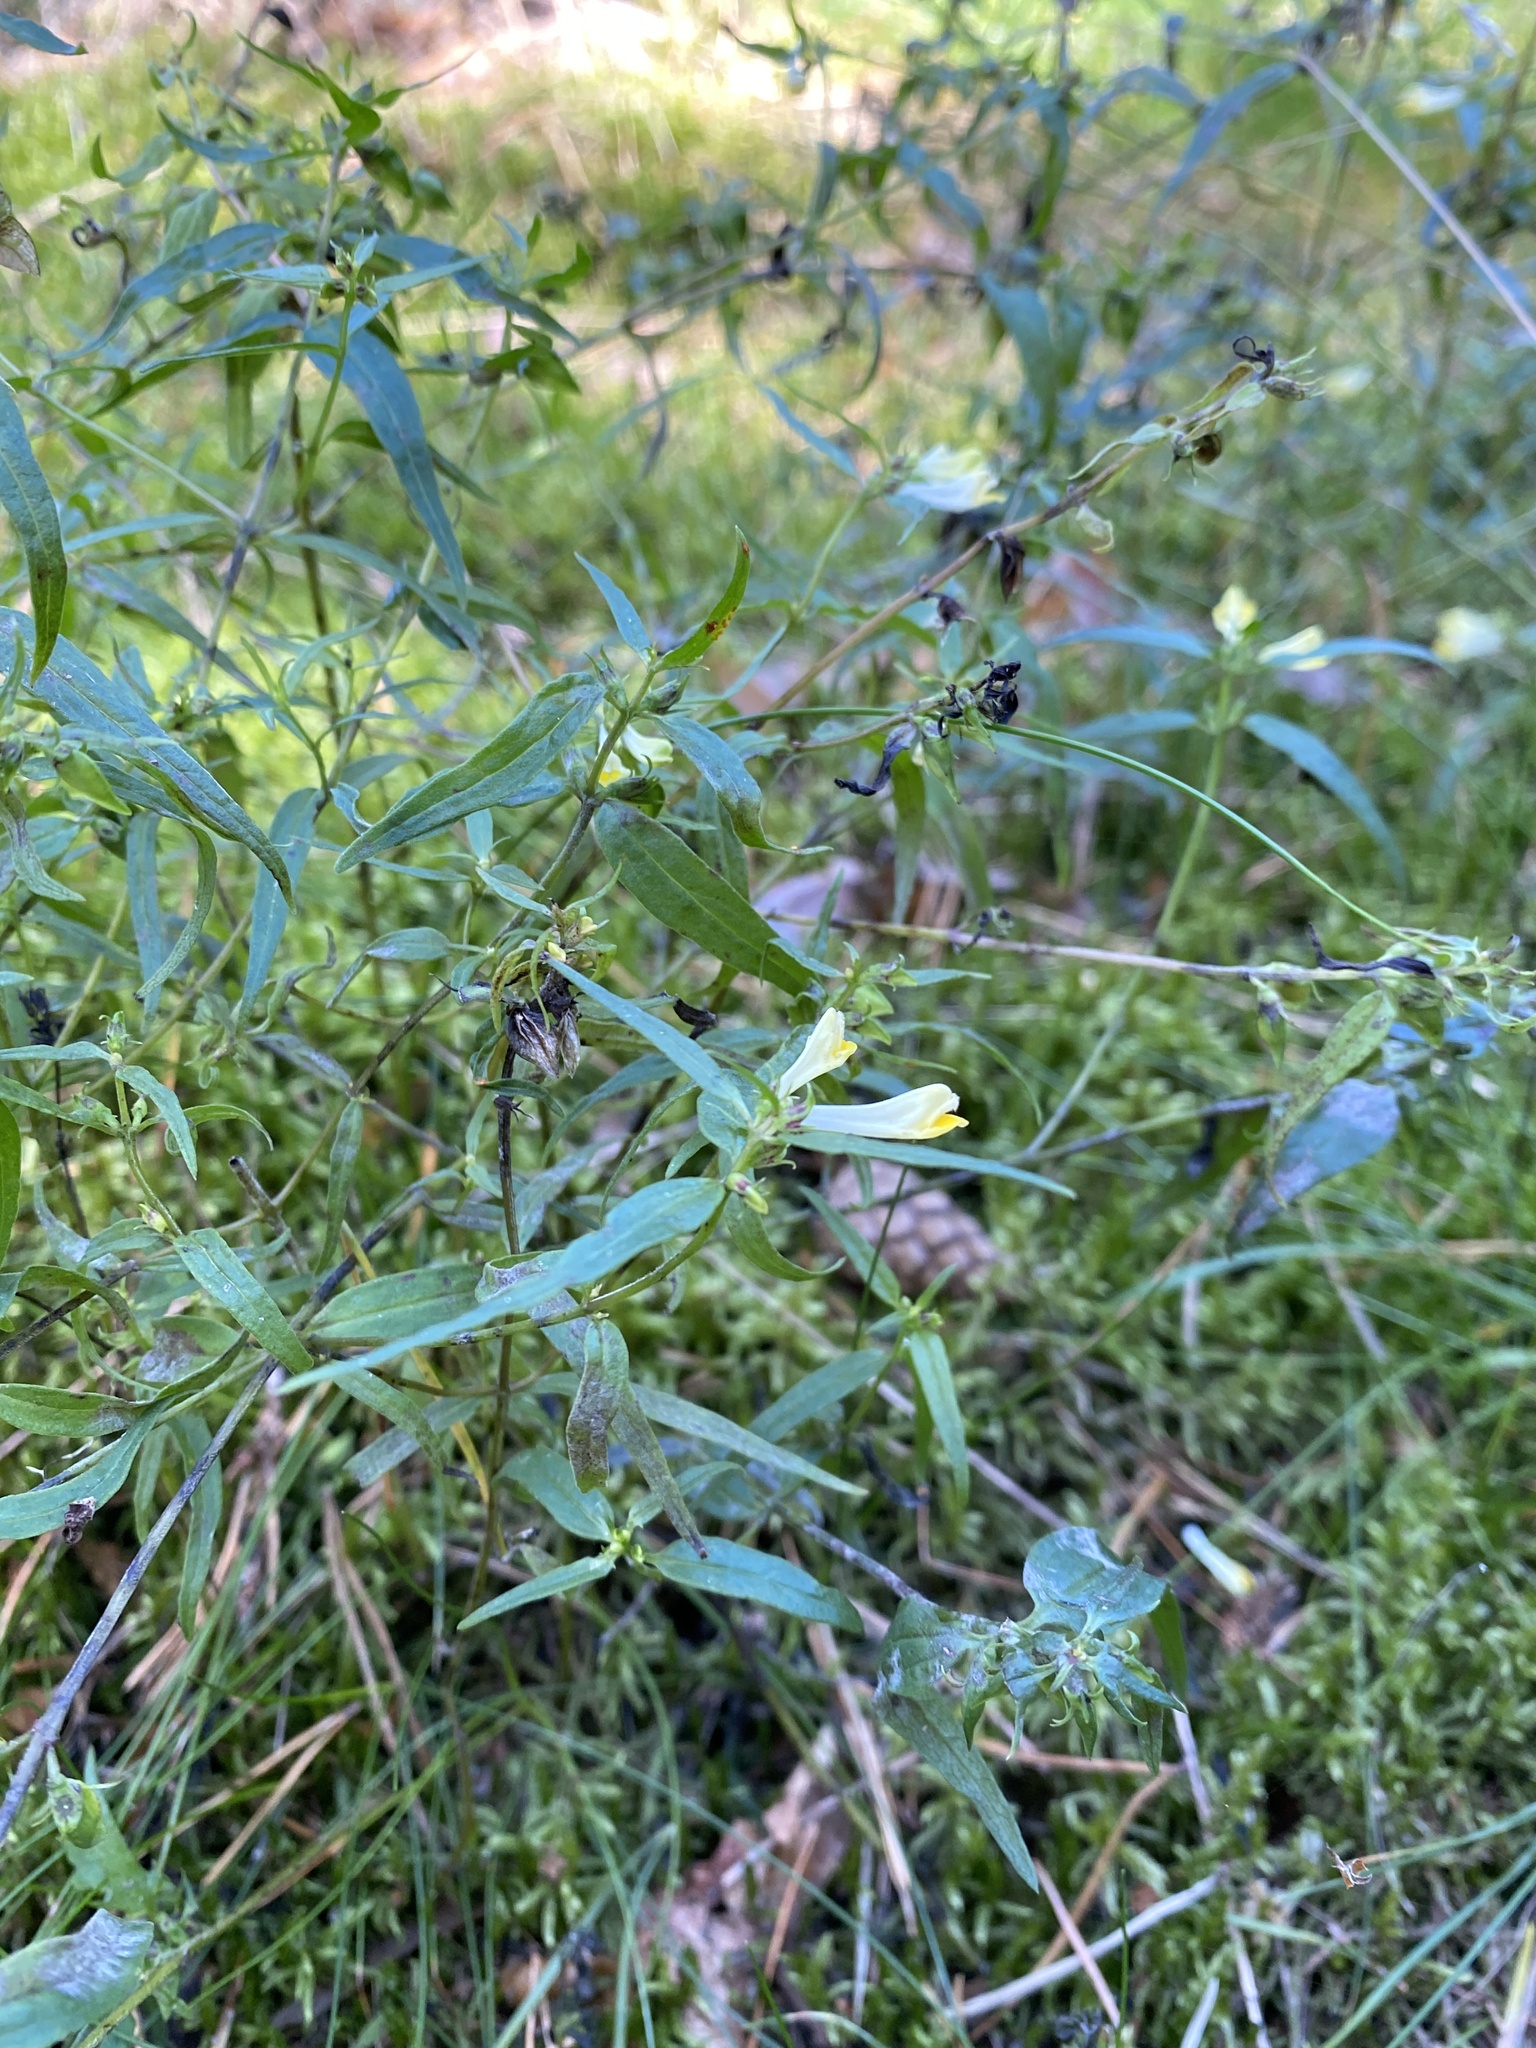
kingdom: Plantae
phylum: Tracheophyta
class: Magnoliopsida
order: Lamiales
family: Orobanchaceae
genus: Melampyrum
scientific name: Melampyrum pratense
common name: Common cow-wheat
